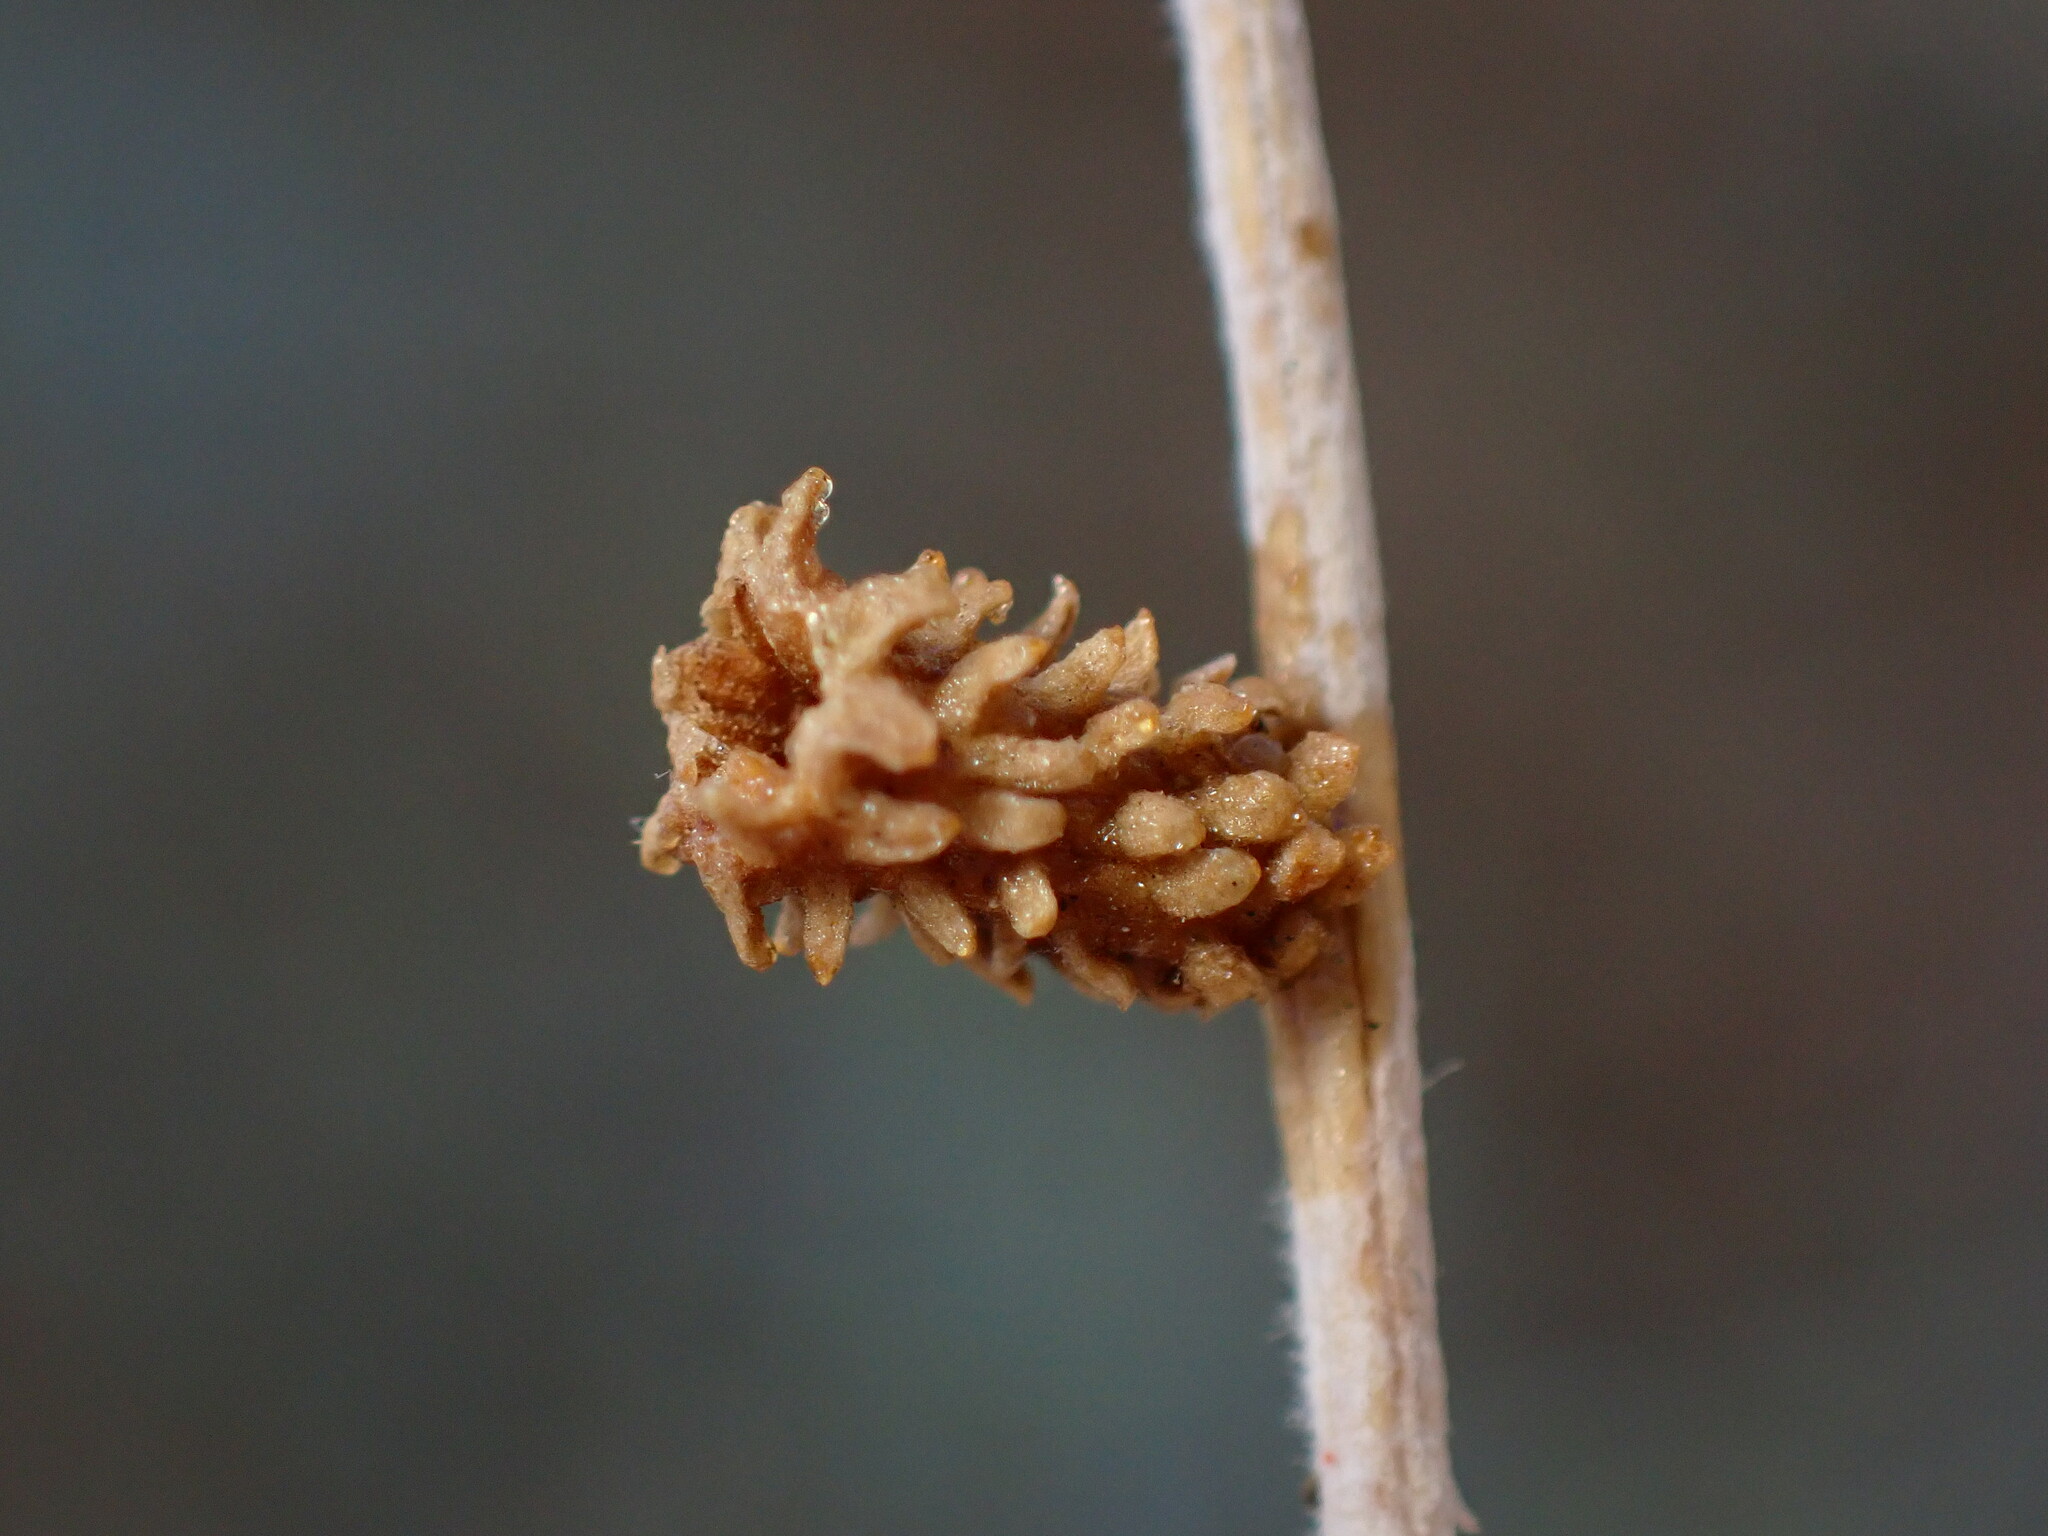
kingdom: Animalia
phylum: Arthropoda
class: Insecta
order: Diptera
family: Cecidomyiidae
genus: Rhopalomyia
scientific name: Rhopalomyia utahensis
